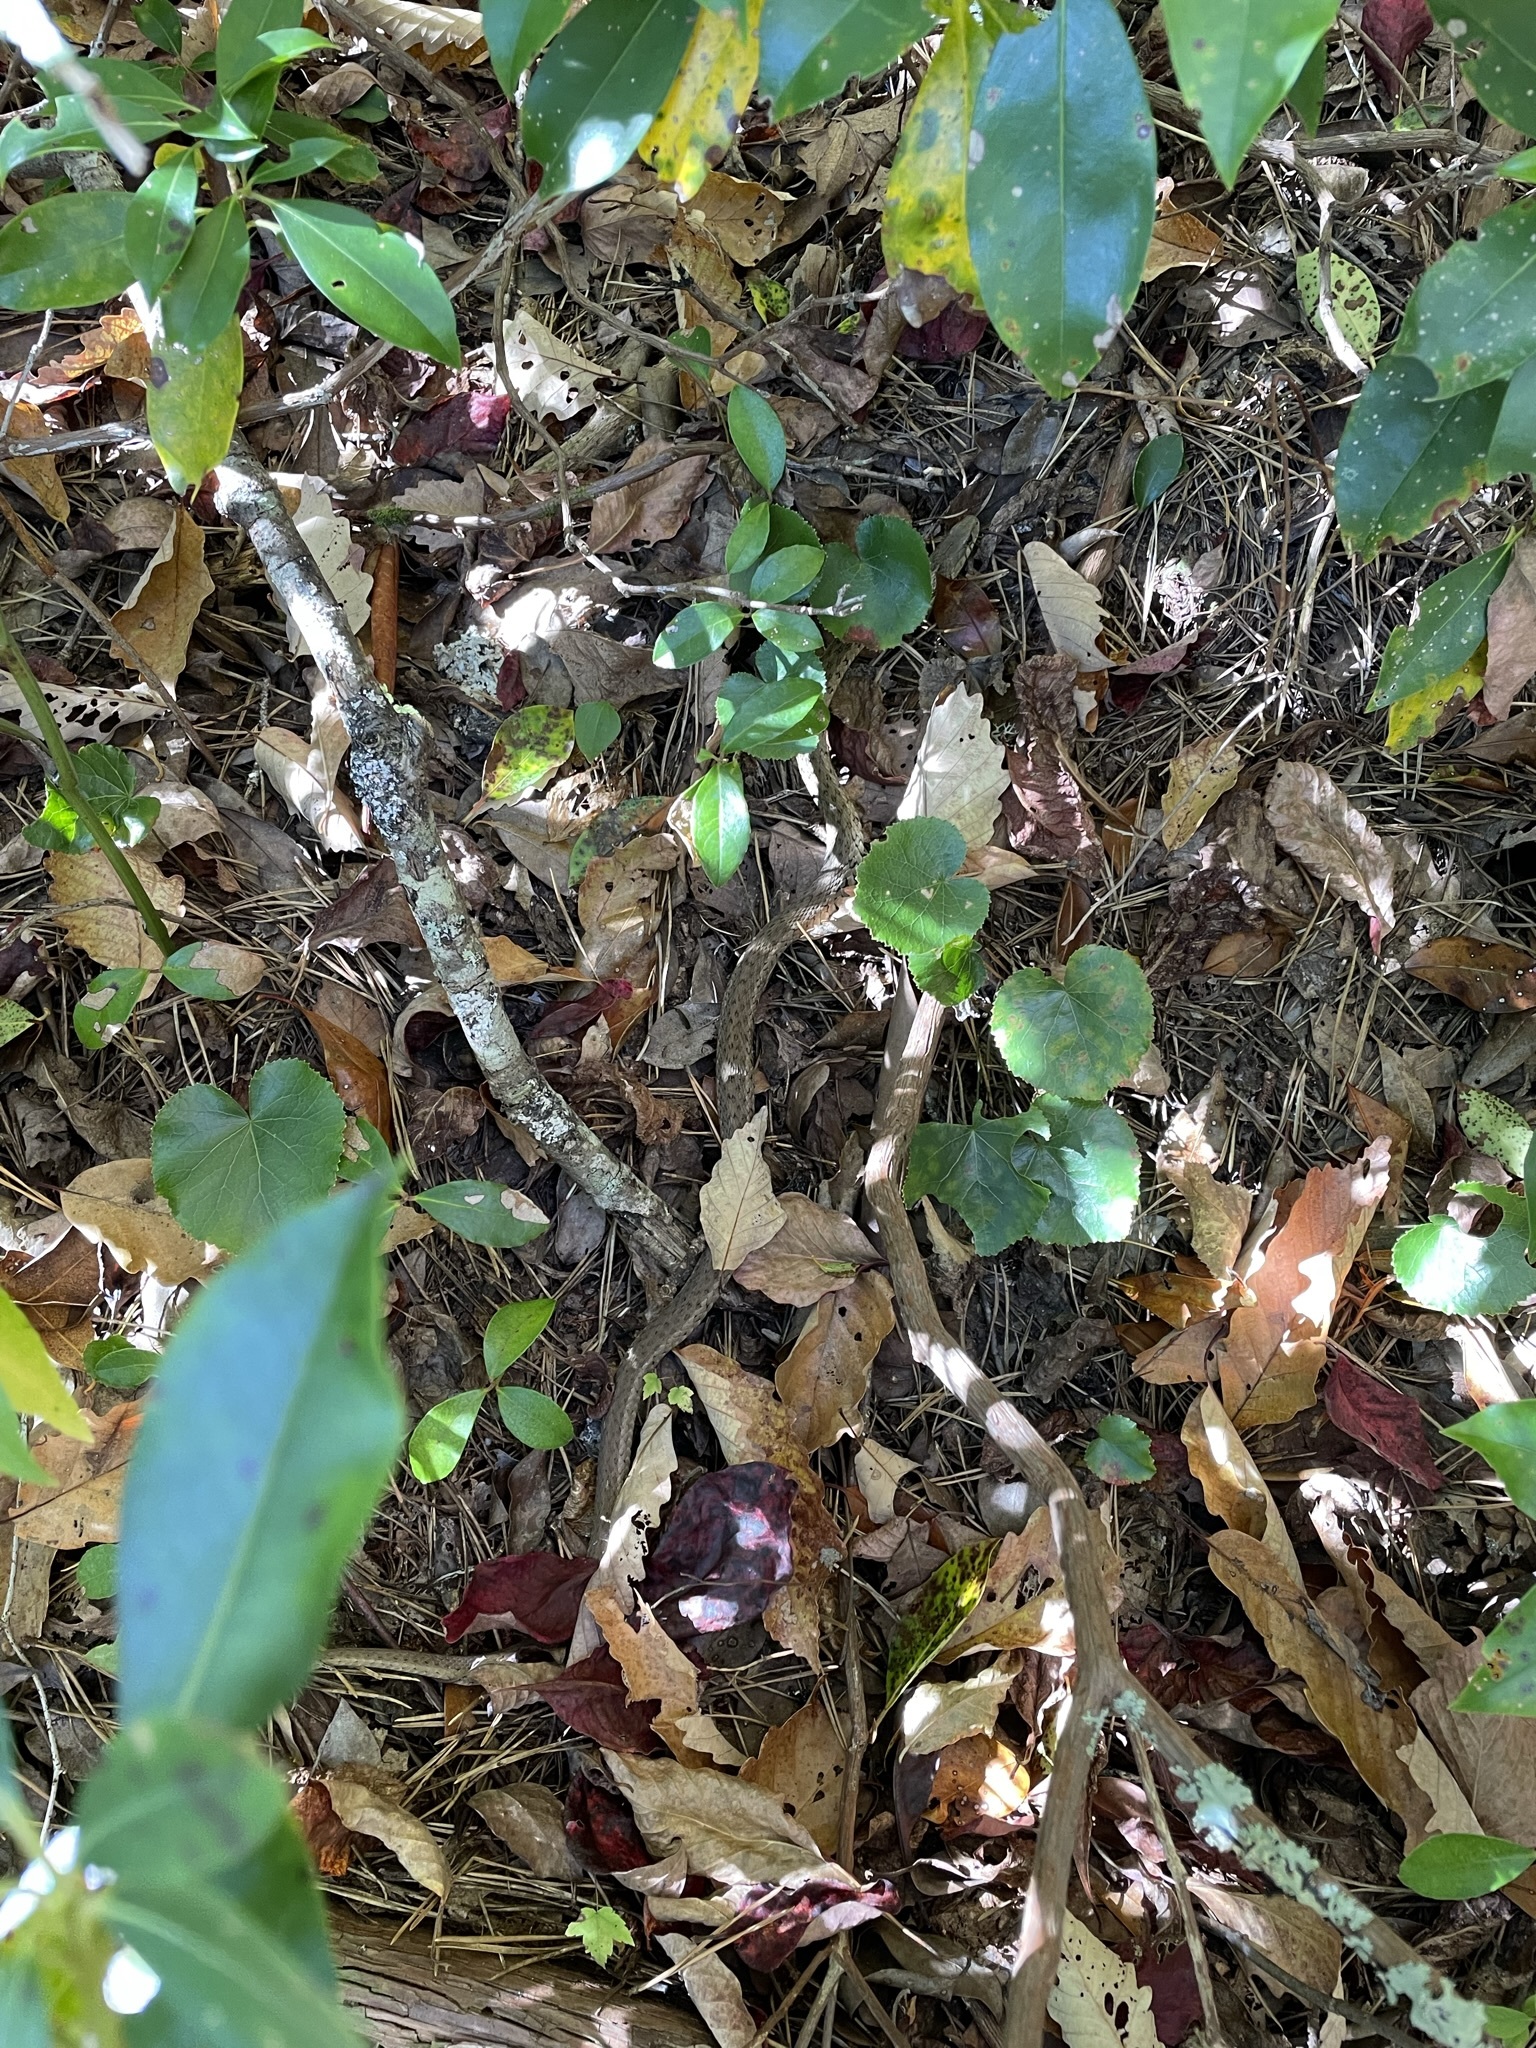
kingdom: Animalia
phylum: Chordata
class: Squamata
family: Colubridae
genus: Thamnophis
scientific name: Thamnophis sirtalis
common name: Common garter snake
